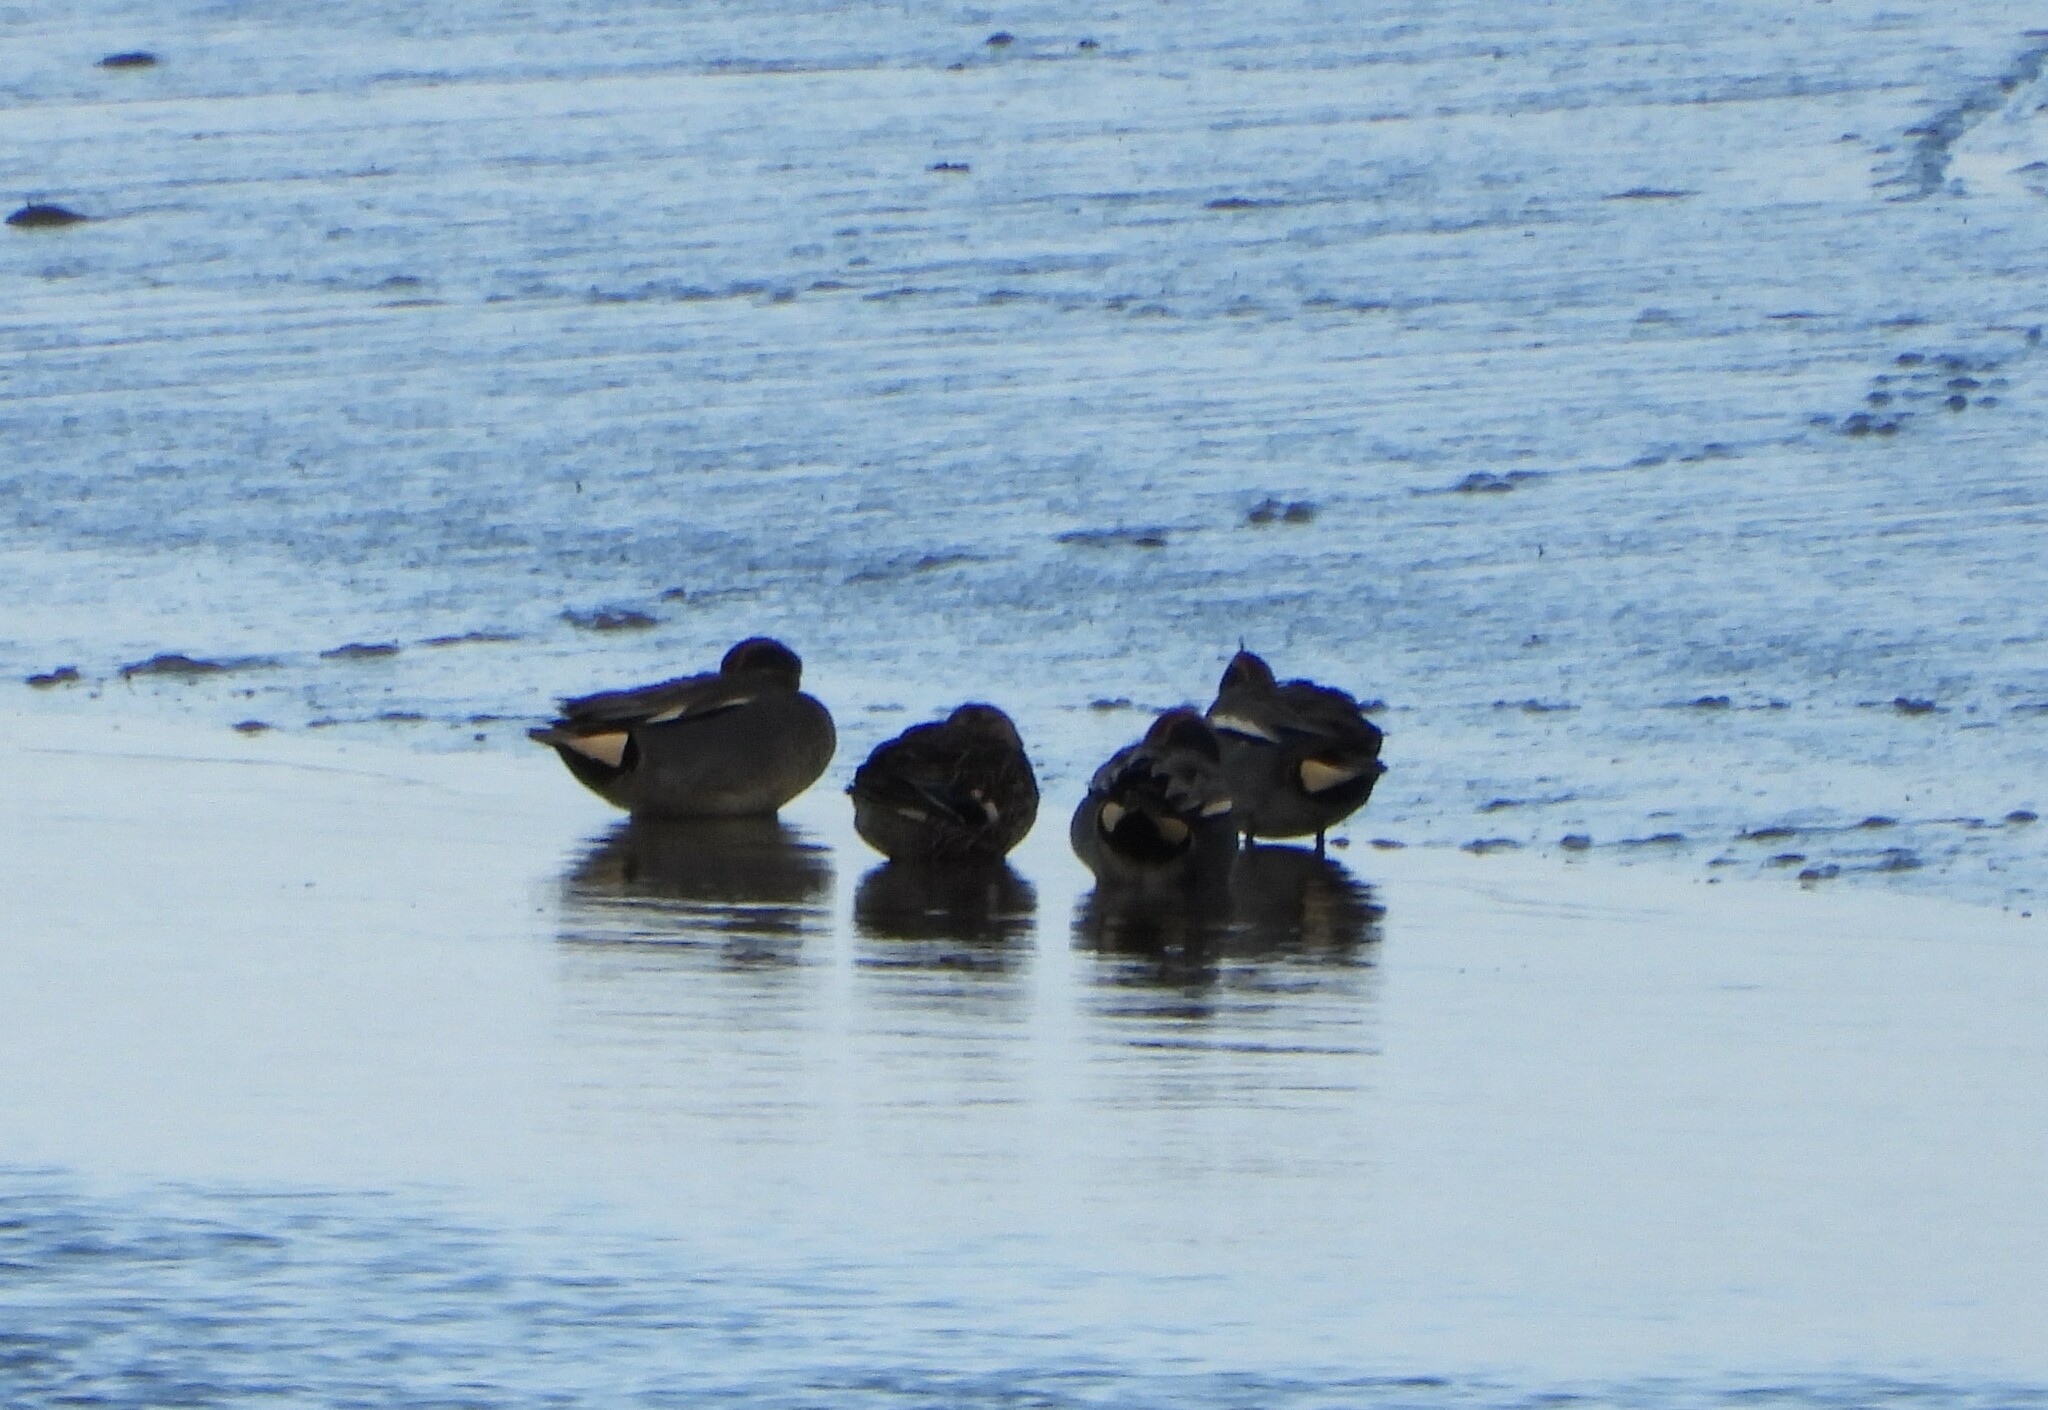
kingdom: Animalia
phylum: Chordata
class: Aves
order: Anseriformes
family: Anatidae
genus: Anas
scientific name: Anas crecca
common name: Eurasian teal
